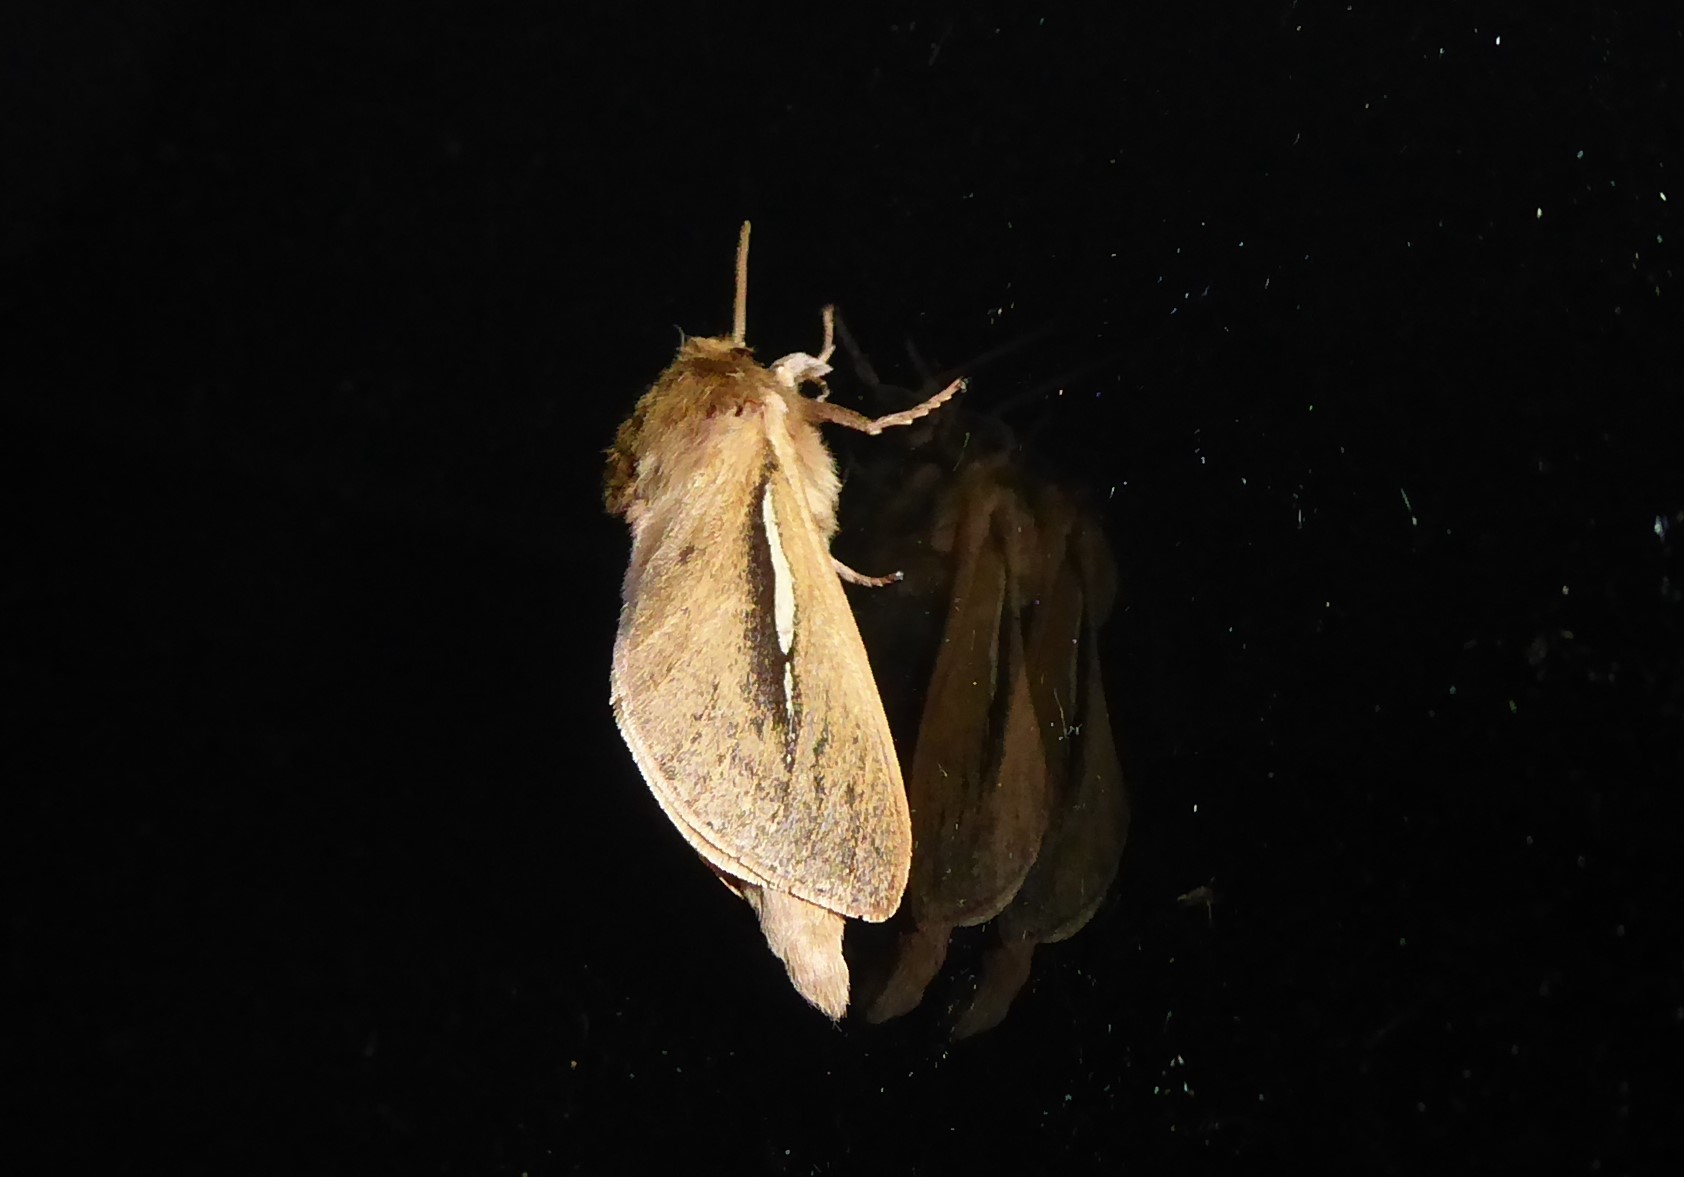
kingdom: Animalia
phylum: Arthropoda
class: Insecta
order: Lepidoptera
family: Hepialidae
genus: Wiseana
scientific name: Wiseana umbraculatus
